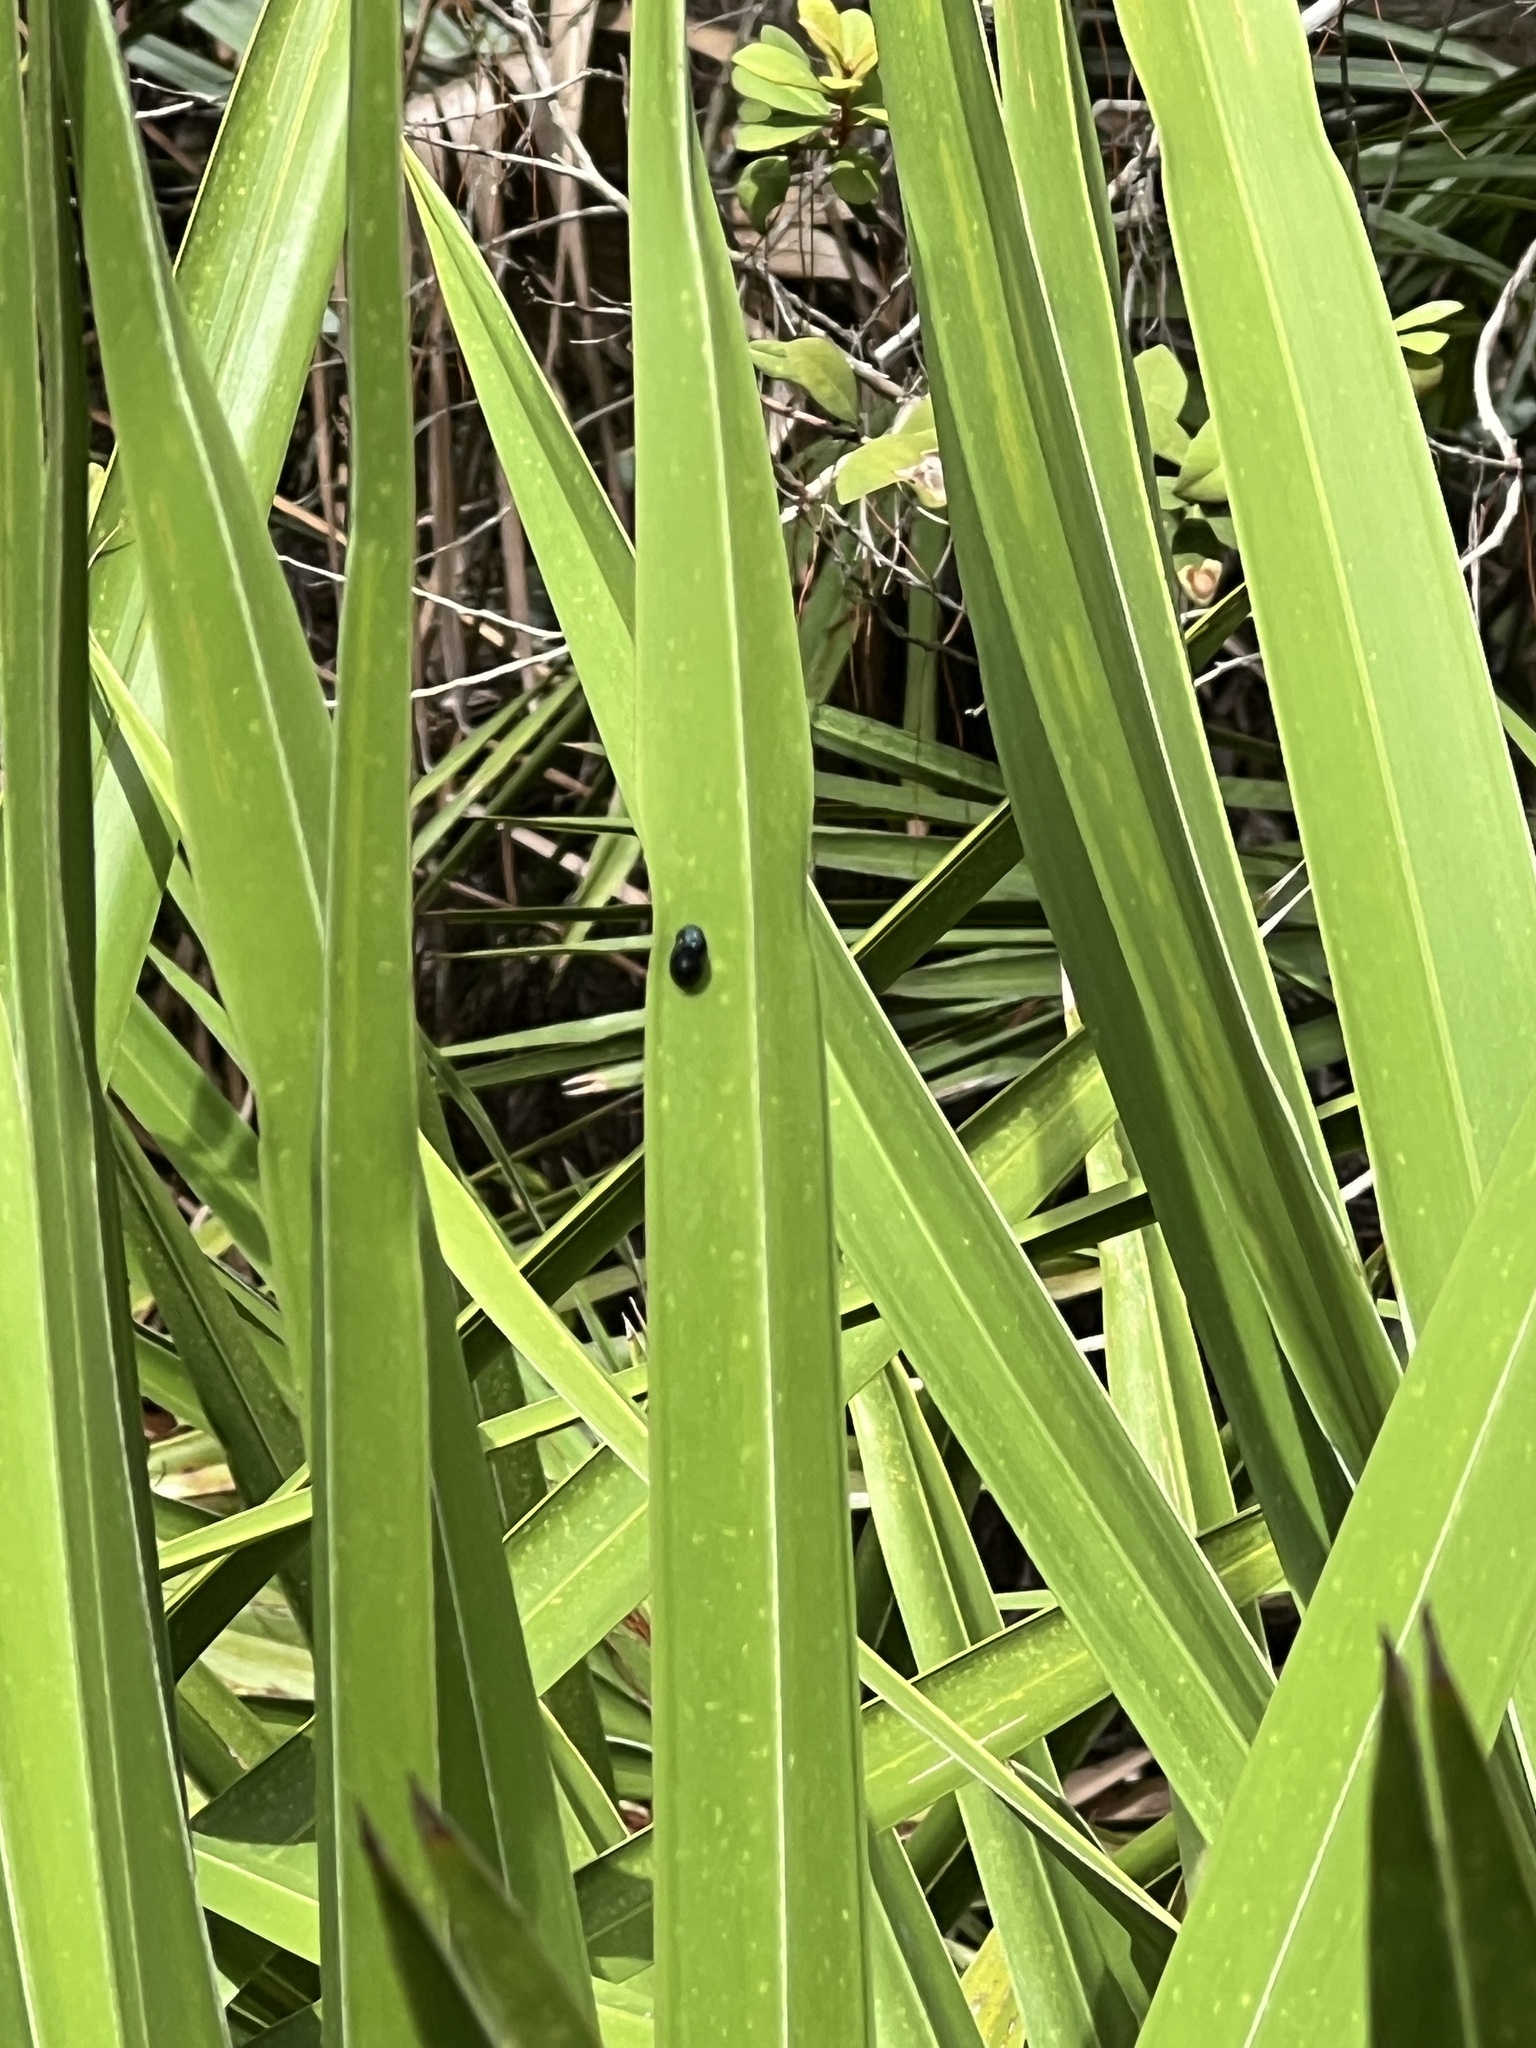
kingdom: Animalia
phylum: Arthropoda
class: Insecta
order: Coleoptera
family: Chrysomelidae
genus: Hemisphaerota
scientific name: Hemisphaerota cyanea
